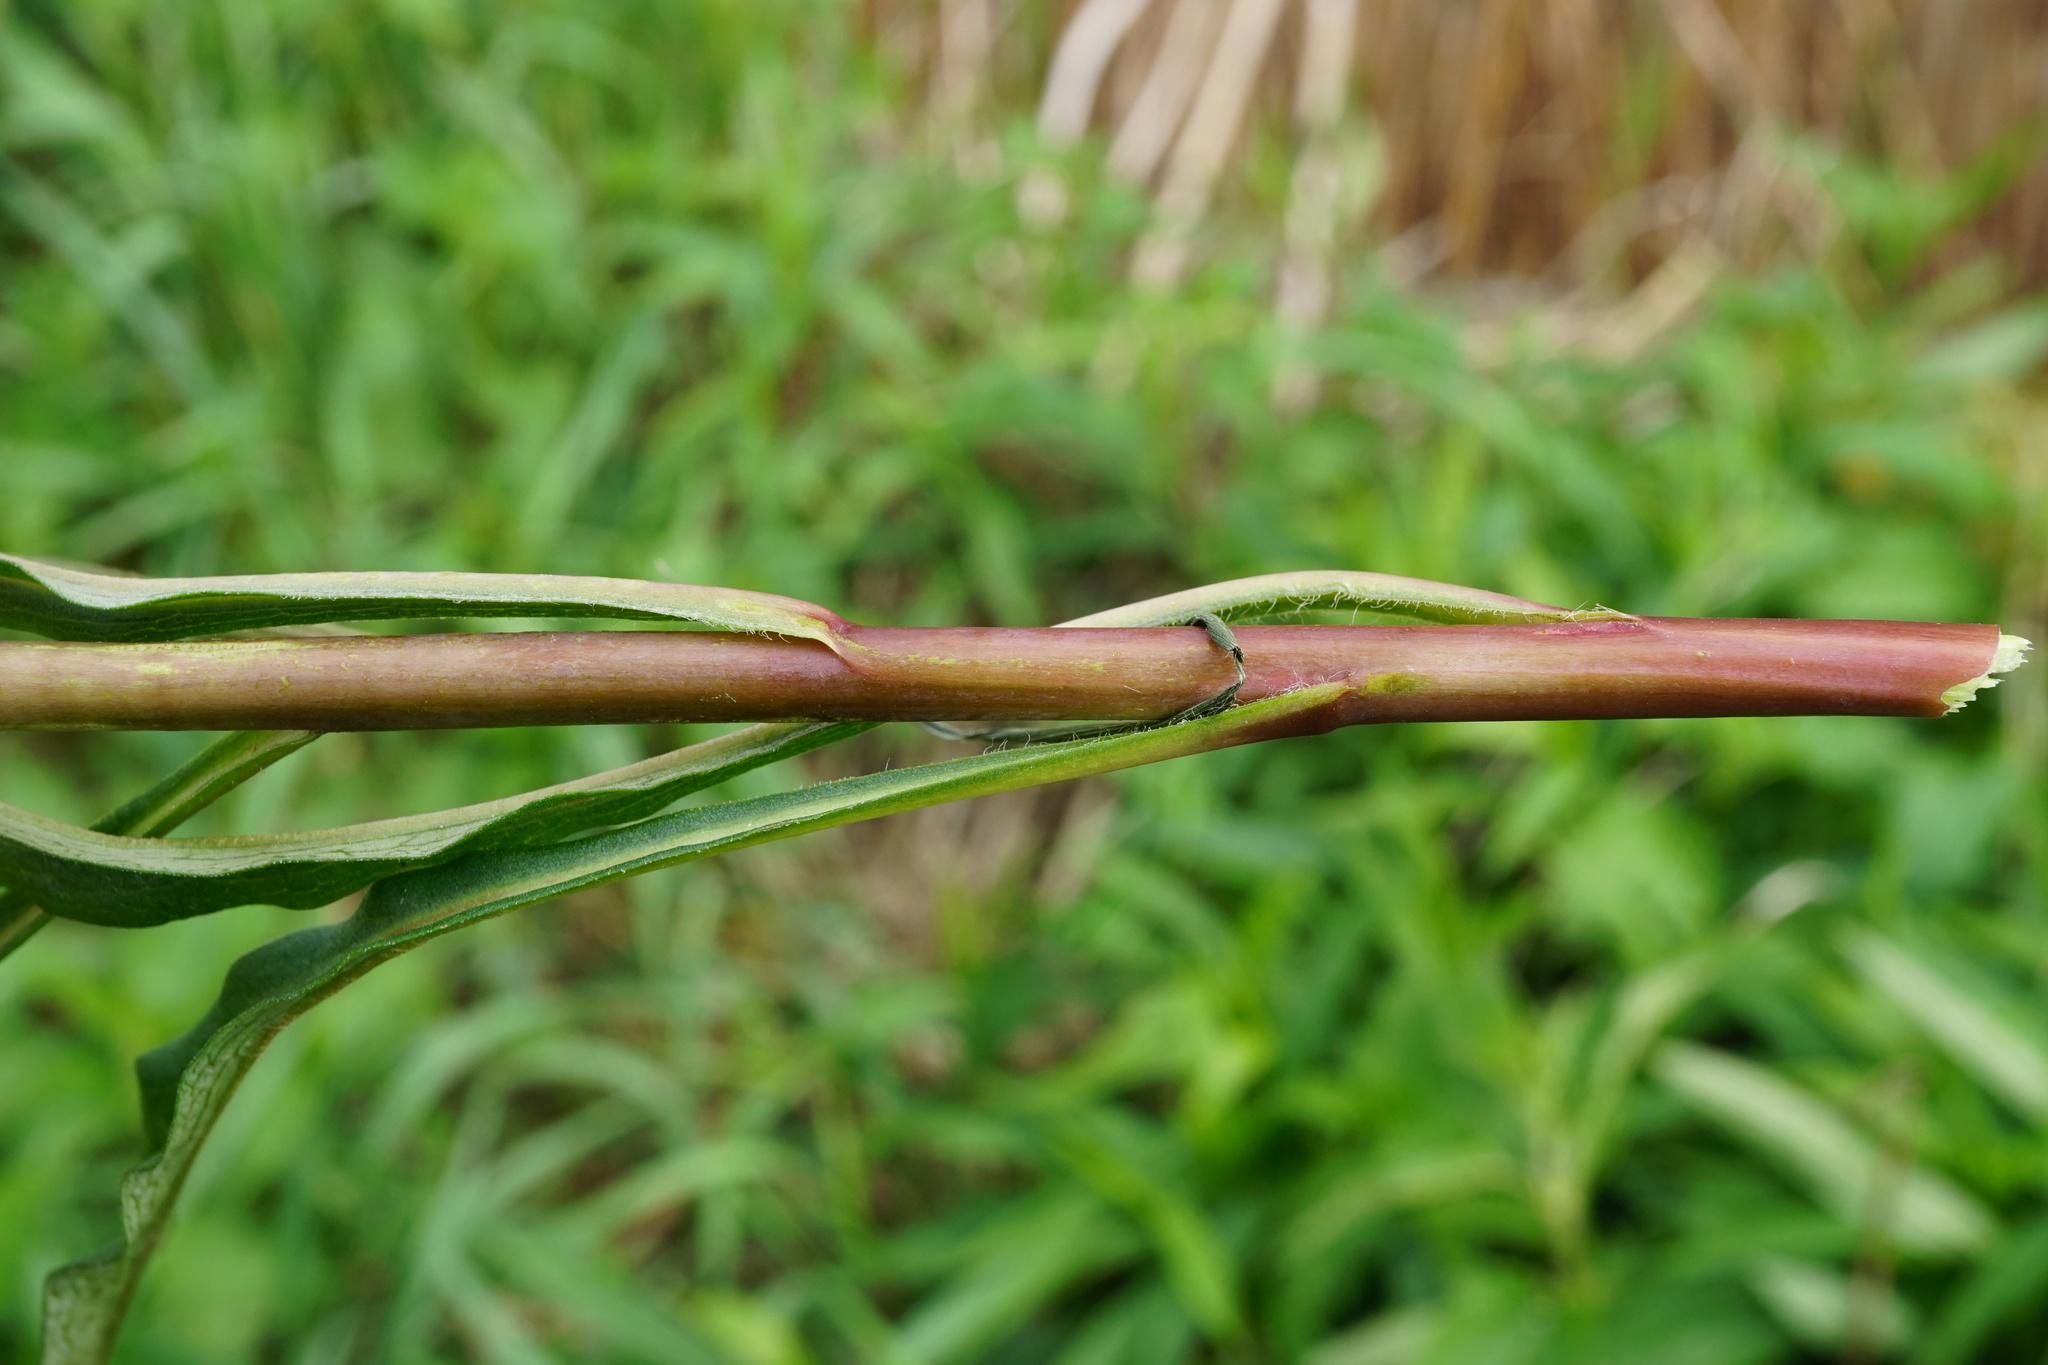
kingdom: Plantae
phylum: Tracheophyta
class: Magnoliopsida
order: Asterales
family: Asteraceae
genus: Solidago
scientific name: Solidago gigantea
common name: Giant goldenrod
